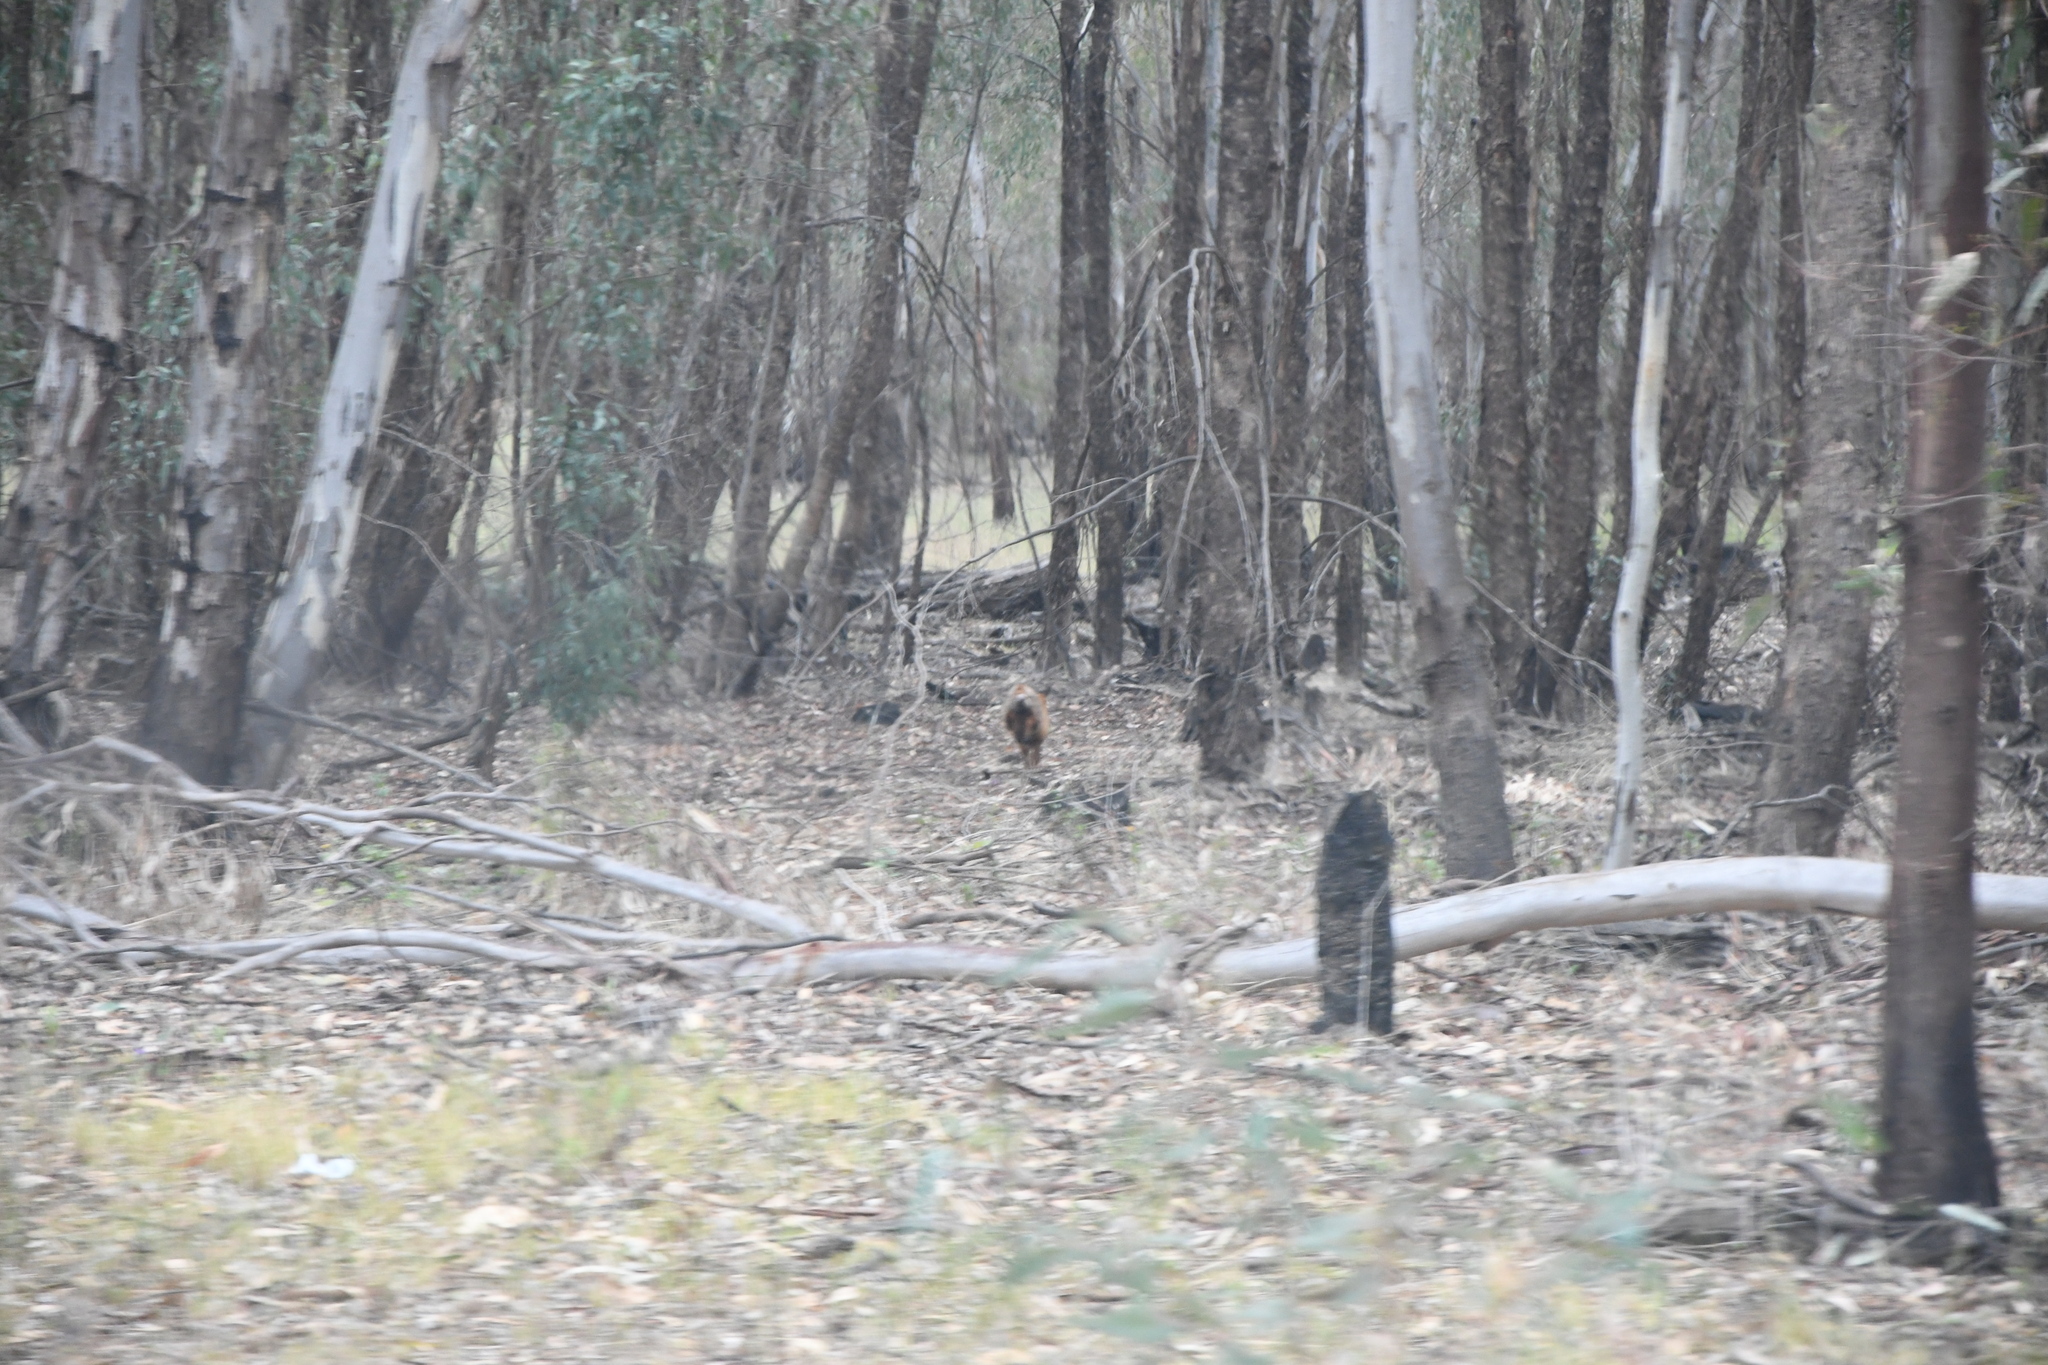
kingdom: Animalia
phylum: Chordata
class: Mammalia
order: Carnivora
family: Canidae
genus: Vulpes
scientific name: Vulpes vulpes
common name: Red fox
